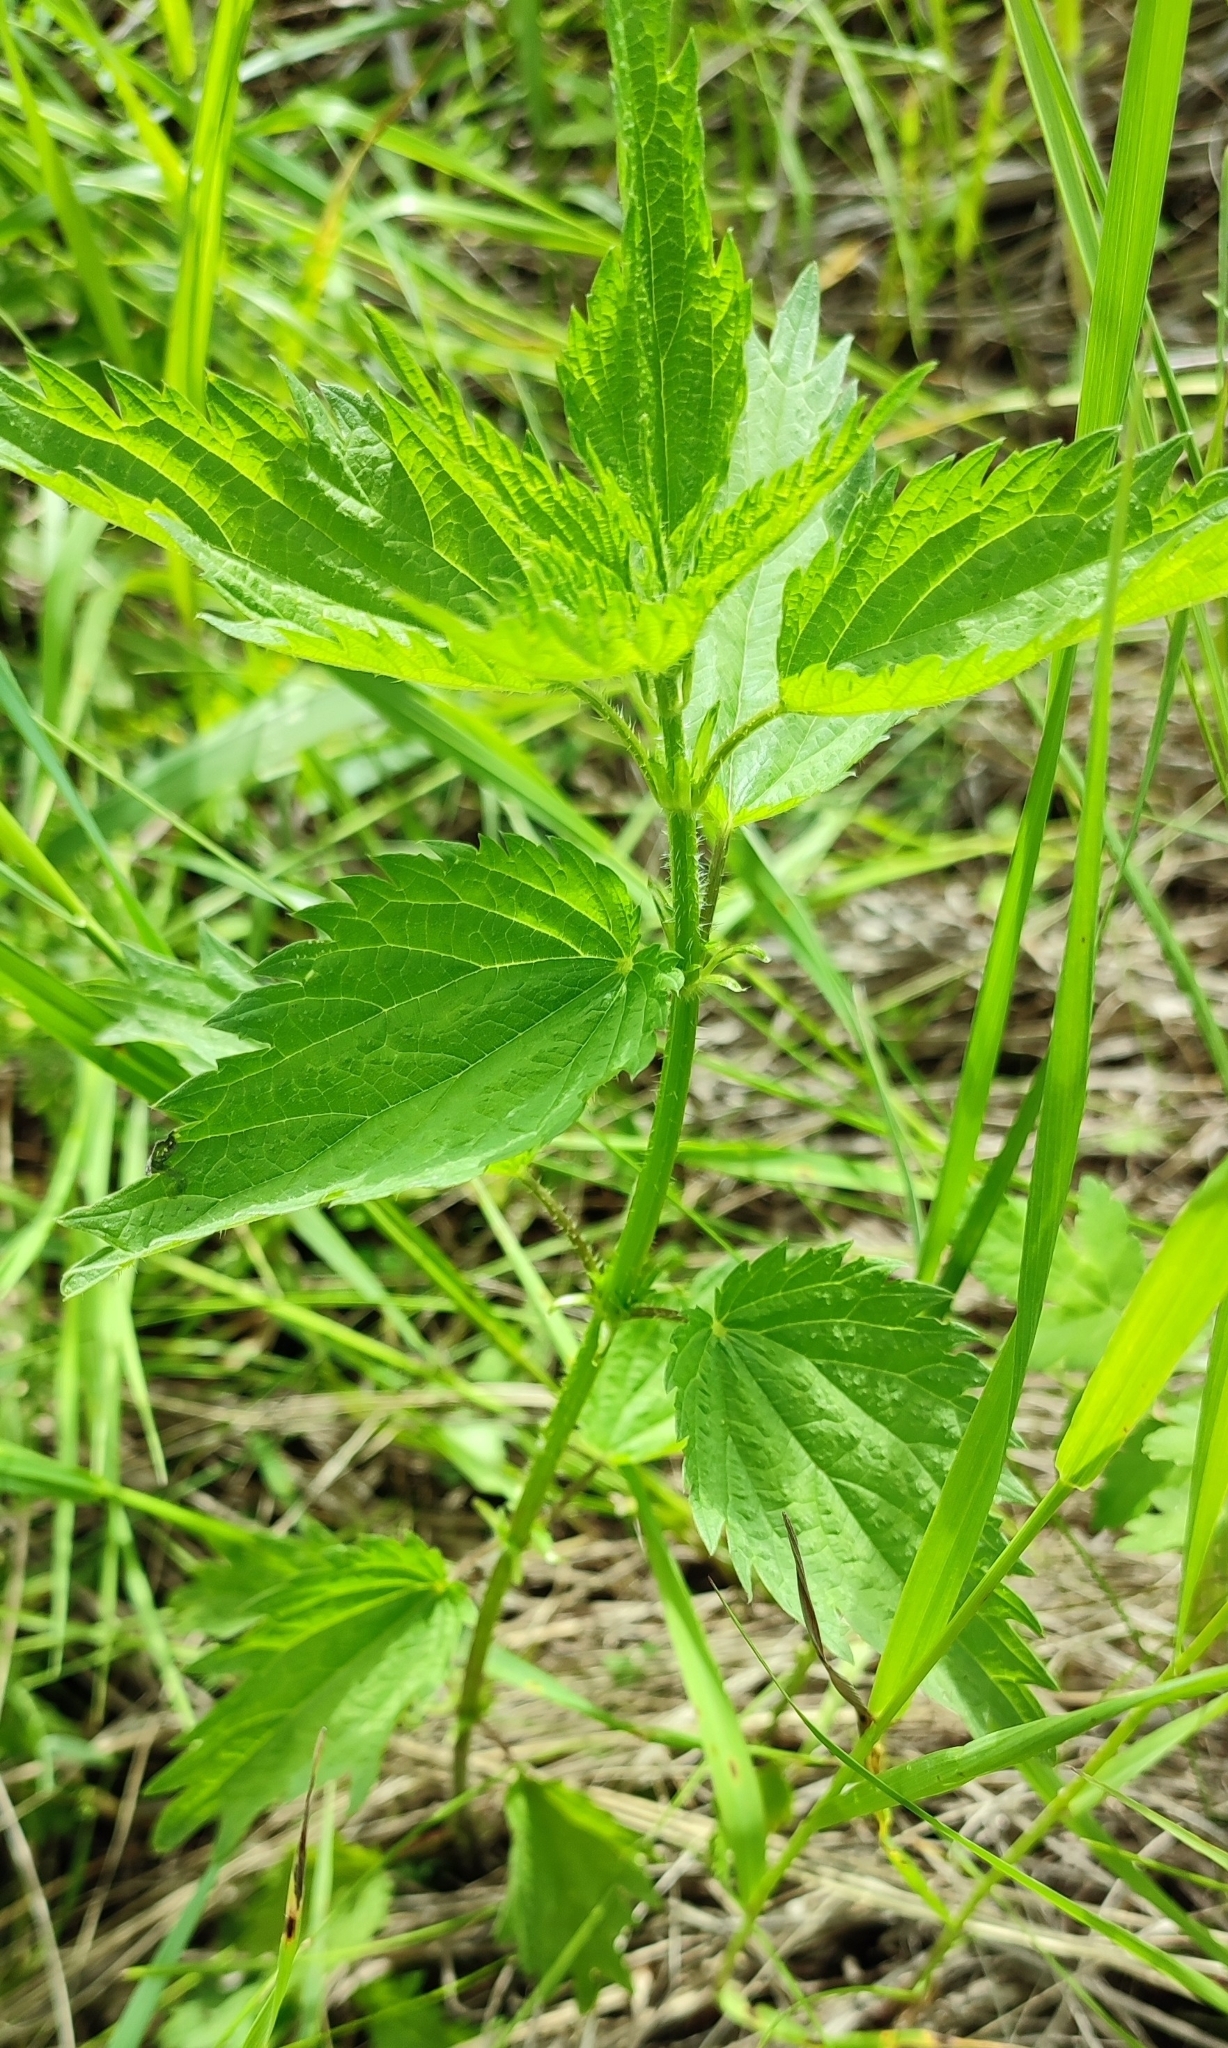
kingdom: Plantae
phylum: Tracheophyta
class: Magnoliopsida
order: Rosales
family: Urticaceae
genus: Urtica
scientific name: Urtica dioica
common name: Common nettle
